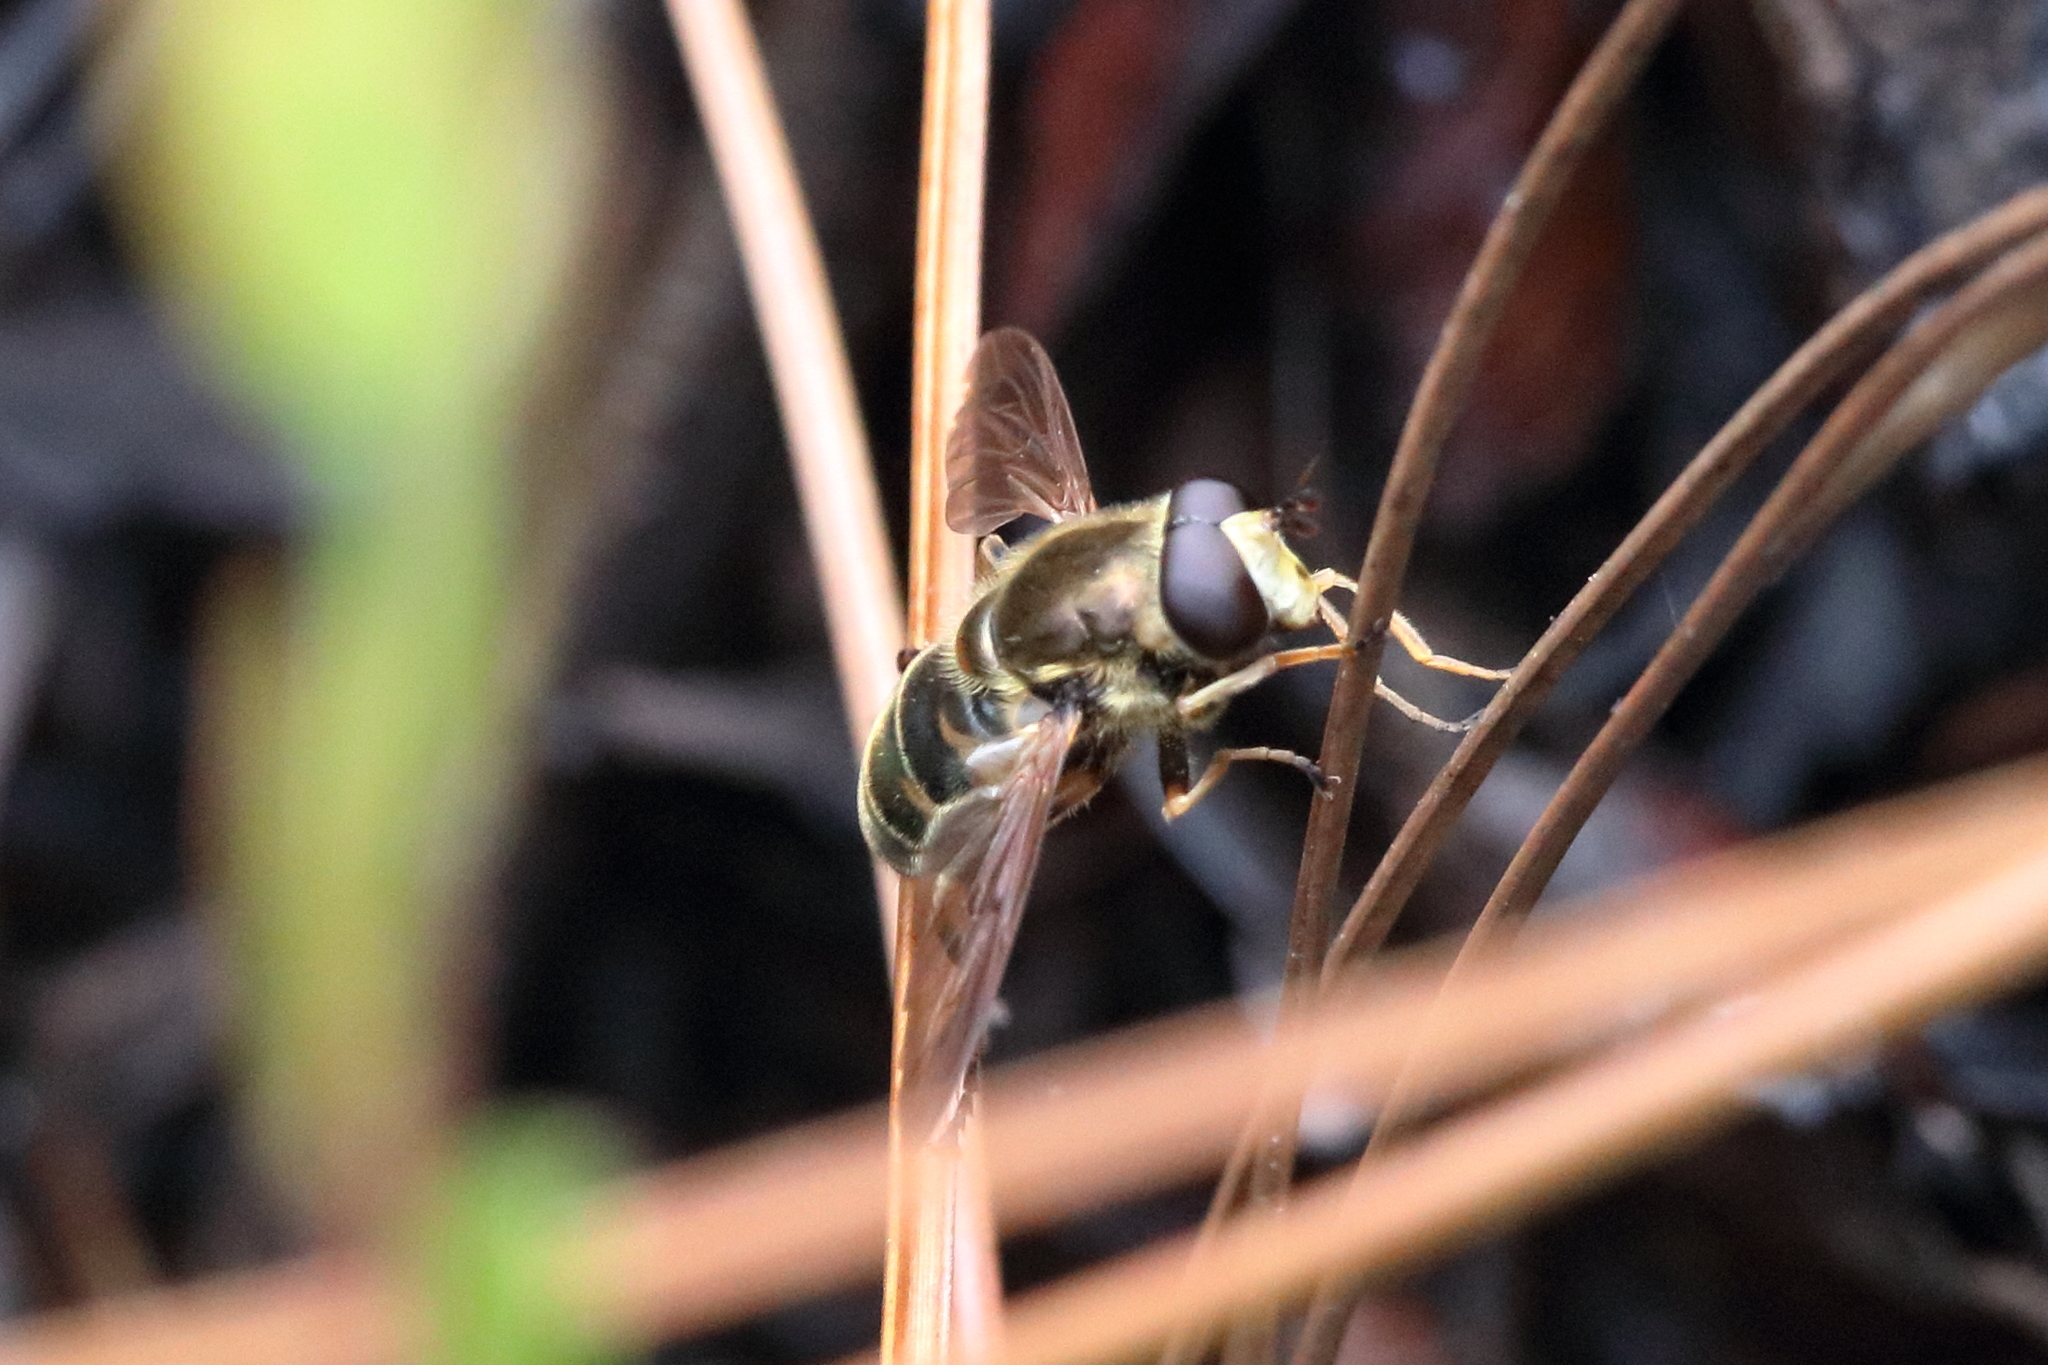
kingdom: Animalia
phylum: Arthropoda
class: Insecta
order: Diptera
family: Syrphidae
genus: Blera
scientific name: Blera notata
